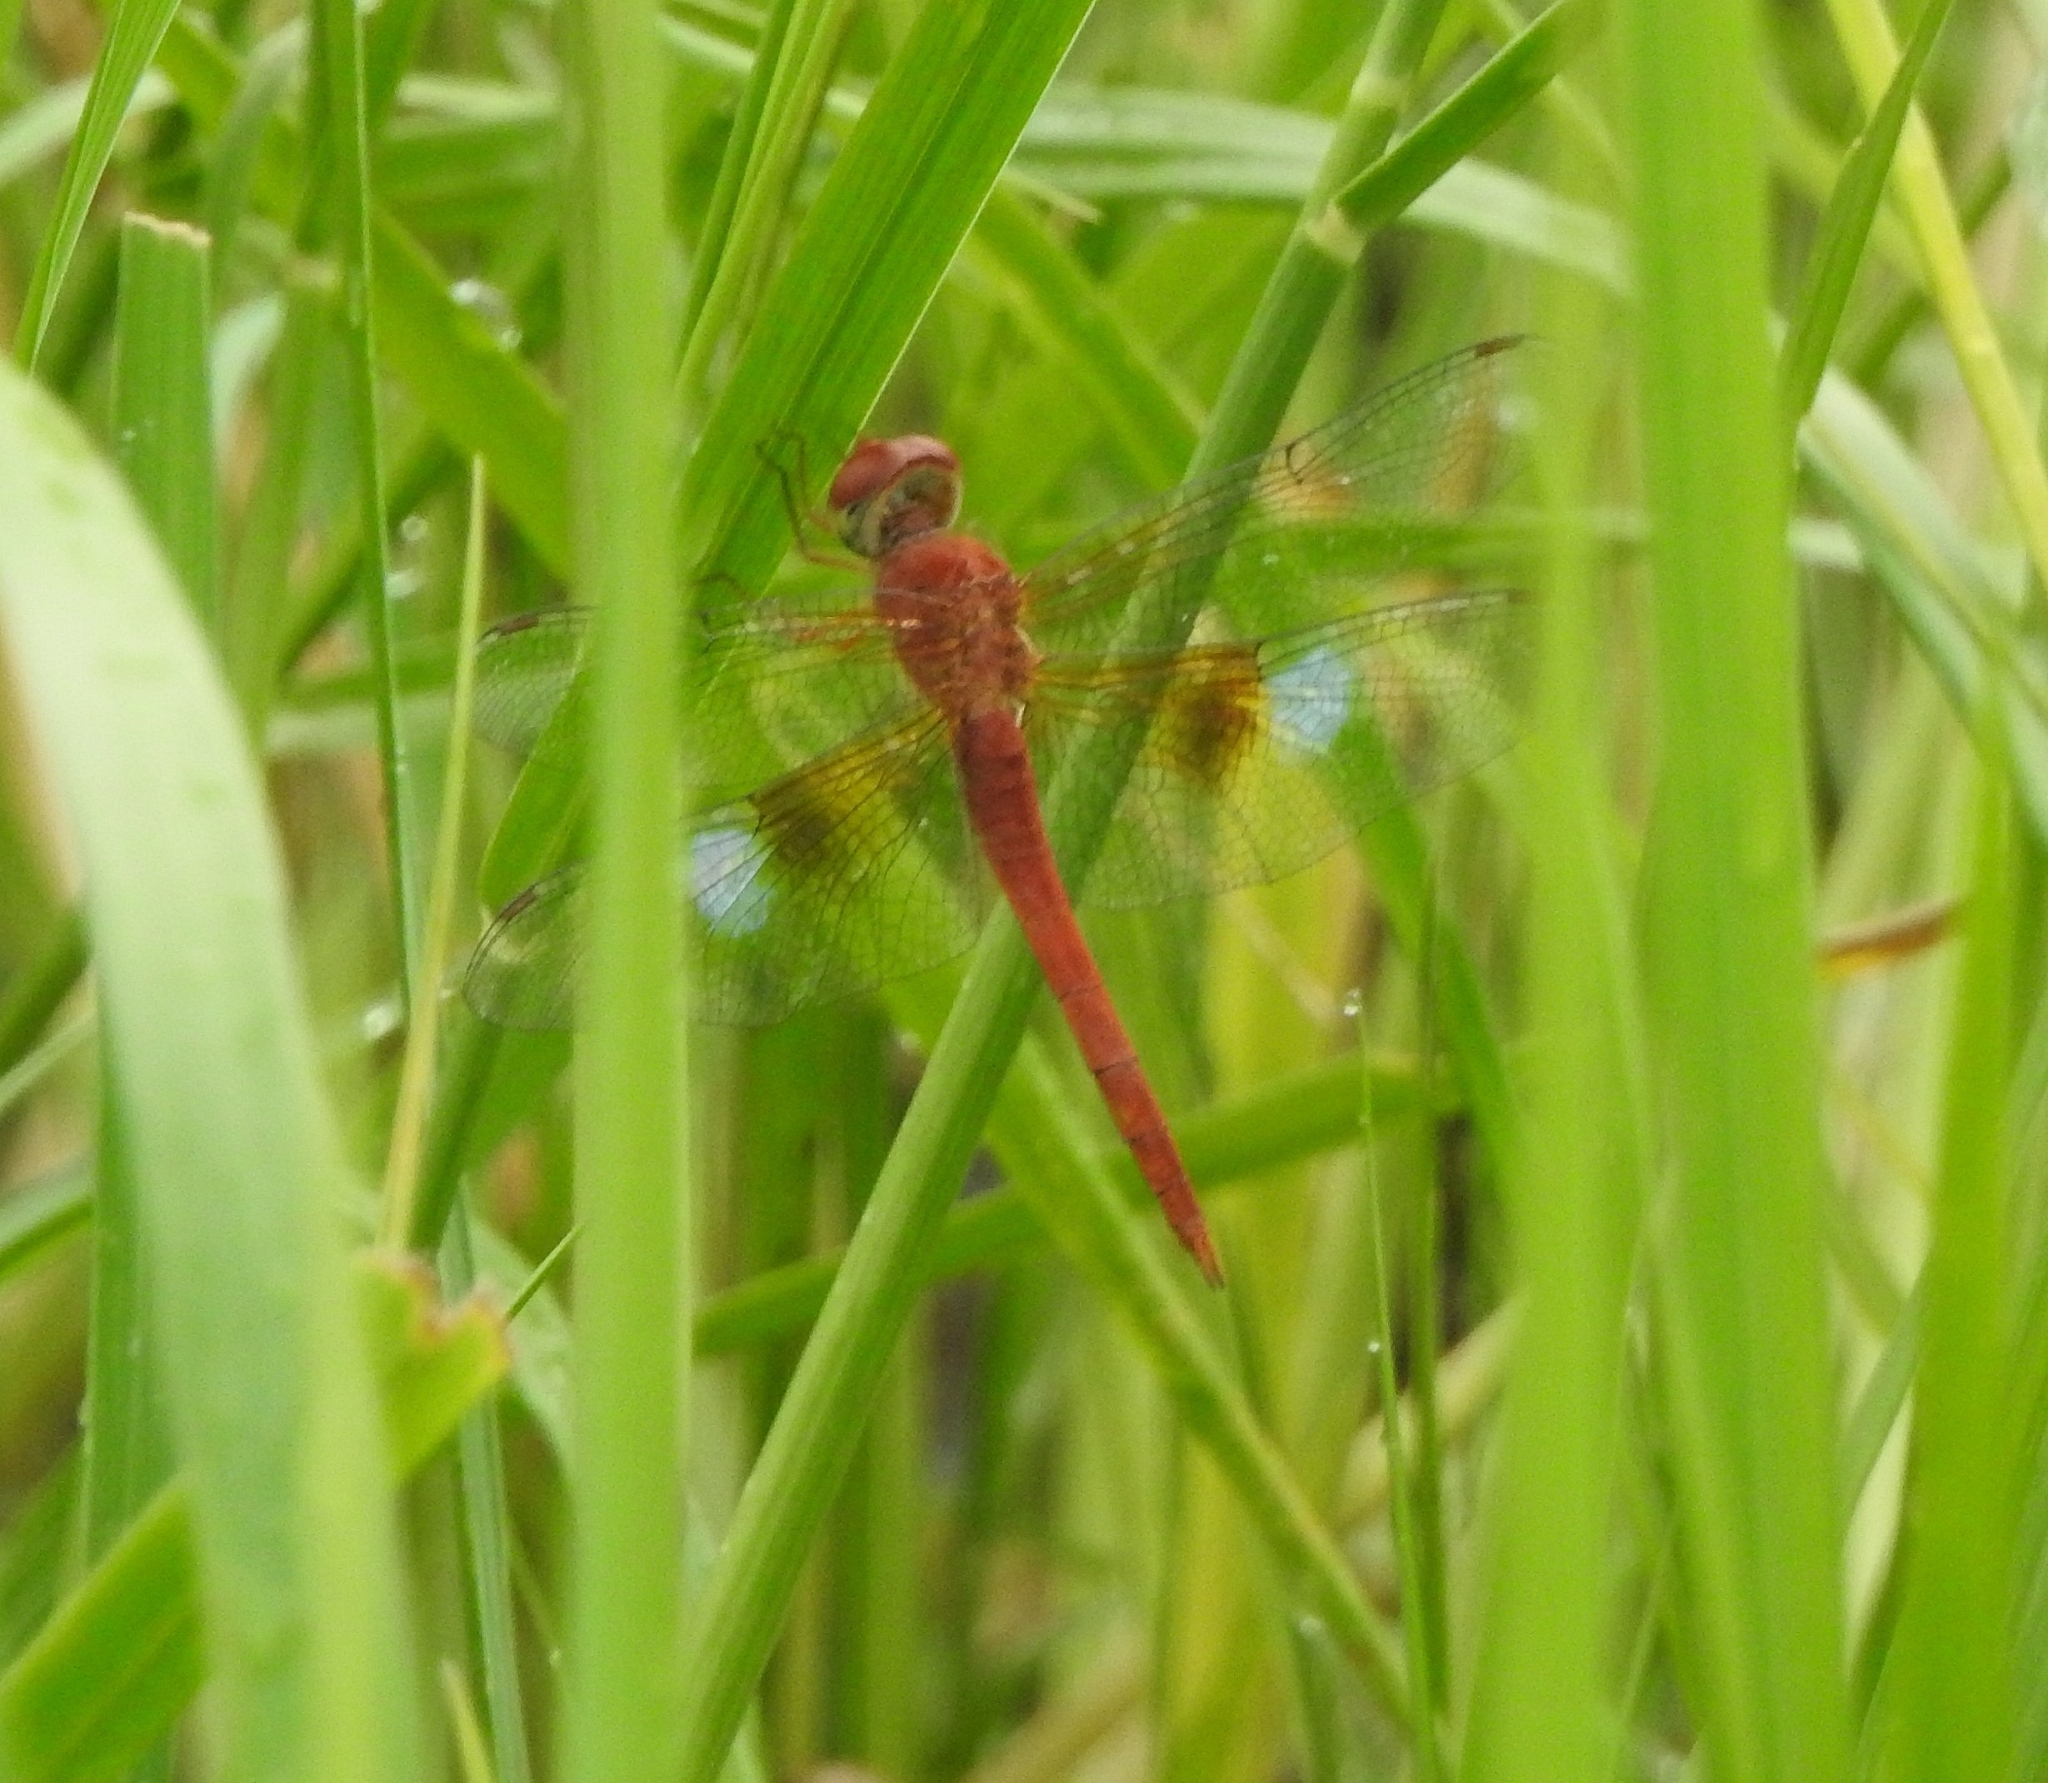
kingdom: Animalia
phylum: Arthropoda
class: Insecta
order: Odonata
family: Libellulidae
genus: Tholymis
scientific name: Tholymis tillarga
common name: Coral-tailed cloud wing
